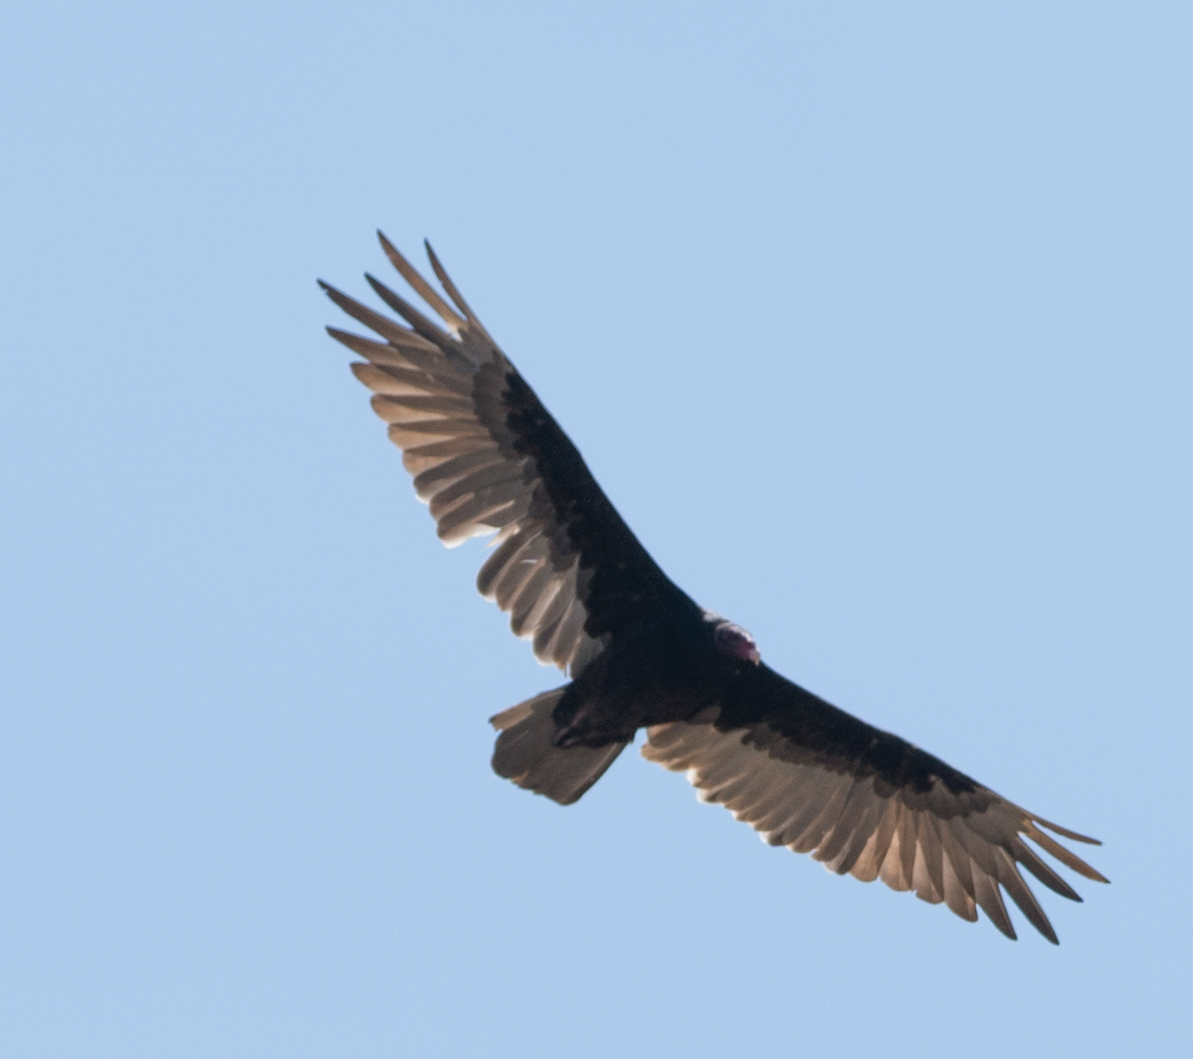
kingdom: Animalia
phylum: Chordata
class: Aves
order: Accipitriformes
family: Cathartidae
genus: Cathartes
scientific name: Cathartes aura
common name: Turkey vulture
